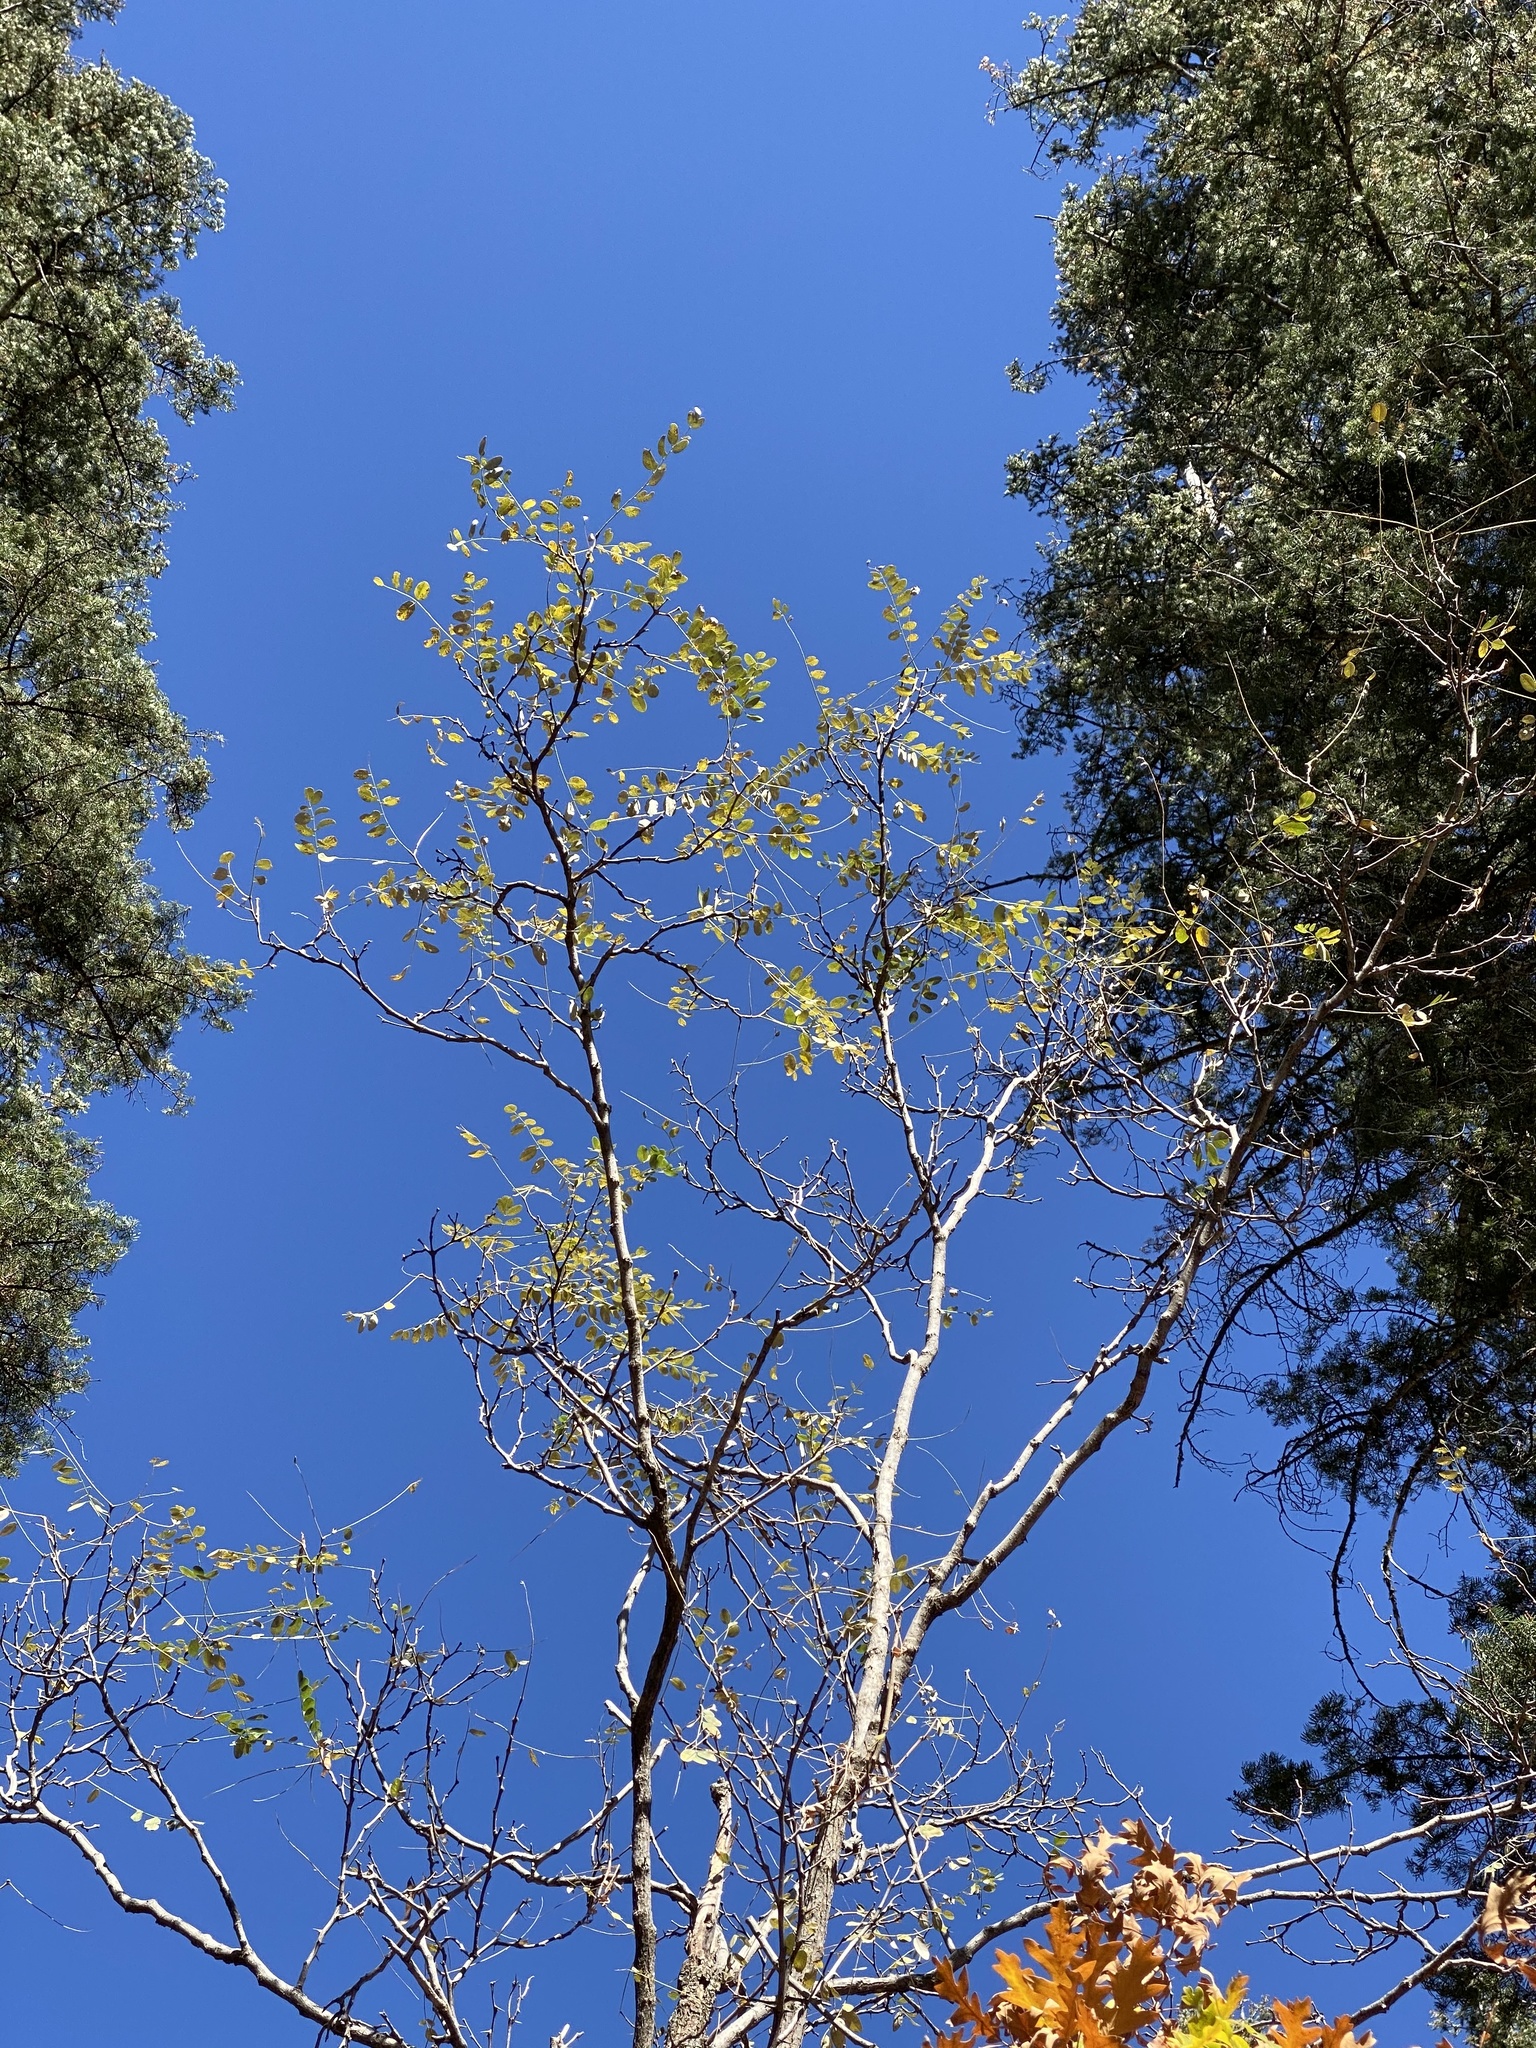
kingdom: Plantae
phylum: Tracheophyta
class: Magnoliopsida
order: Fabales
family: Fabaceae
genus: Robinia
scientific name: Robinia neomexicana
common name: New mexico locust
